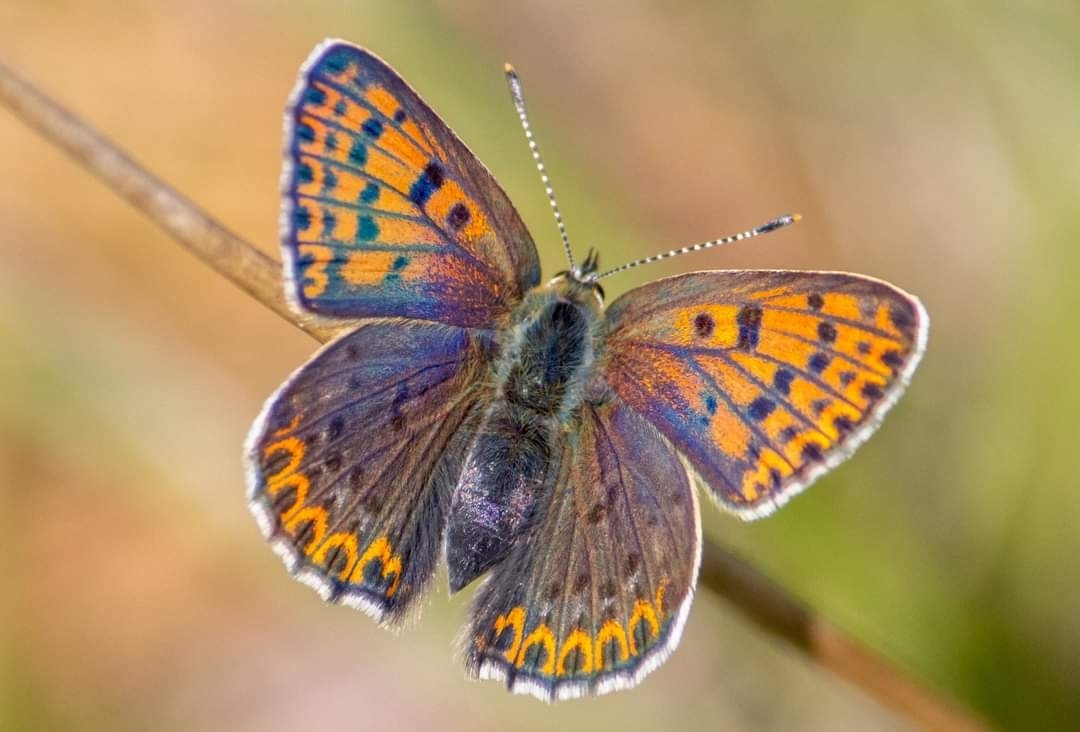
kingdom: Animalia
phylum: Arthropoda
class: Insecta
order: Lepidoptera
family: Lycaenidae
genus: Loweia
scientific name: Loweia tityrus
